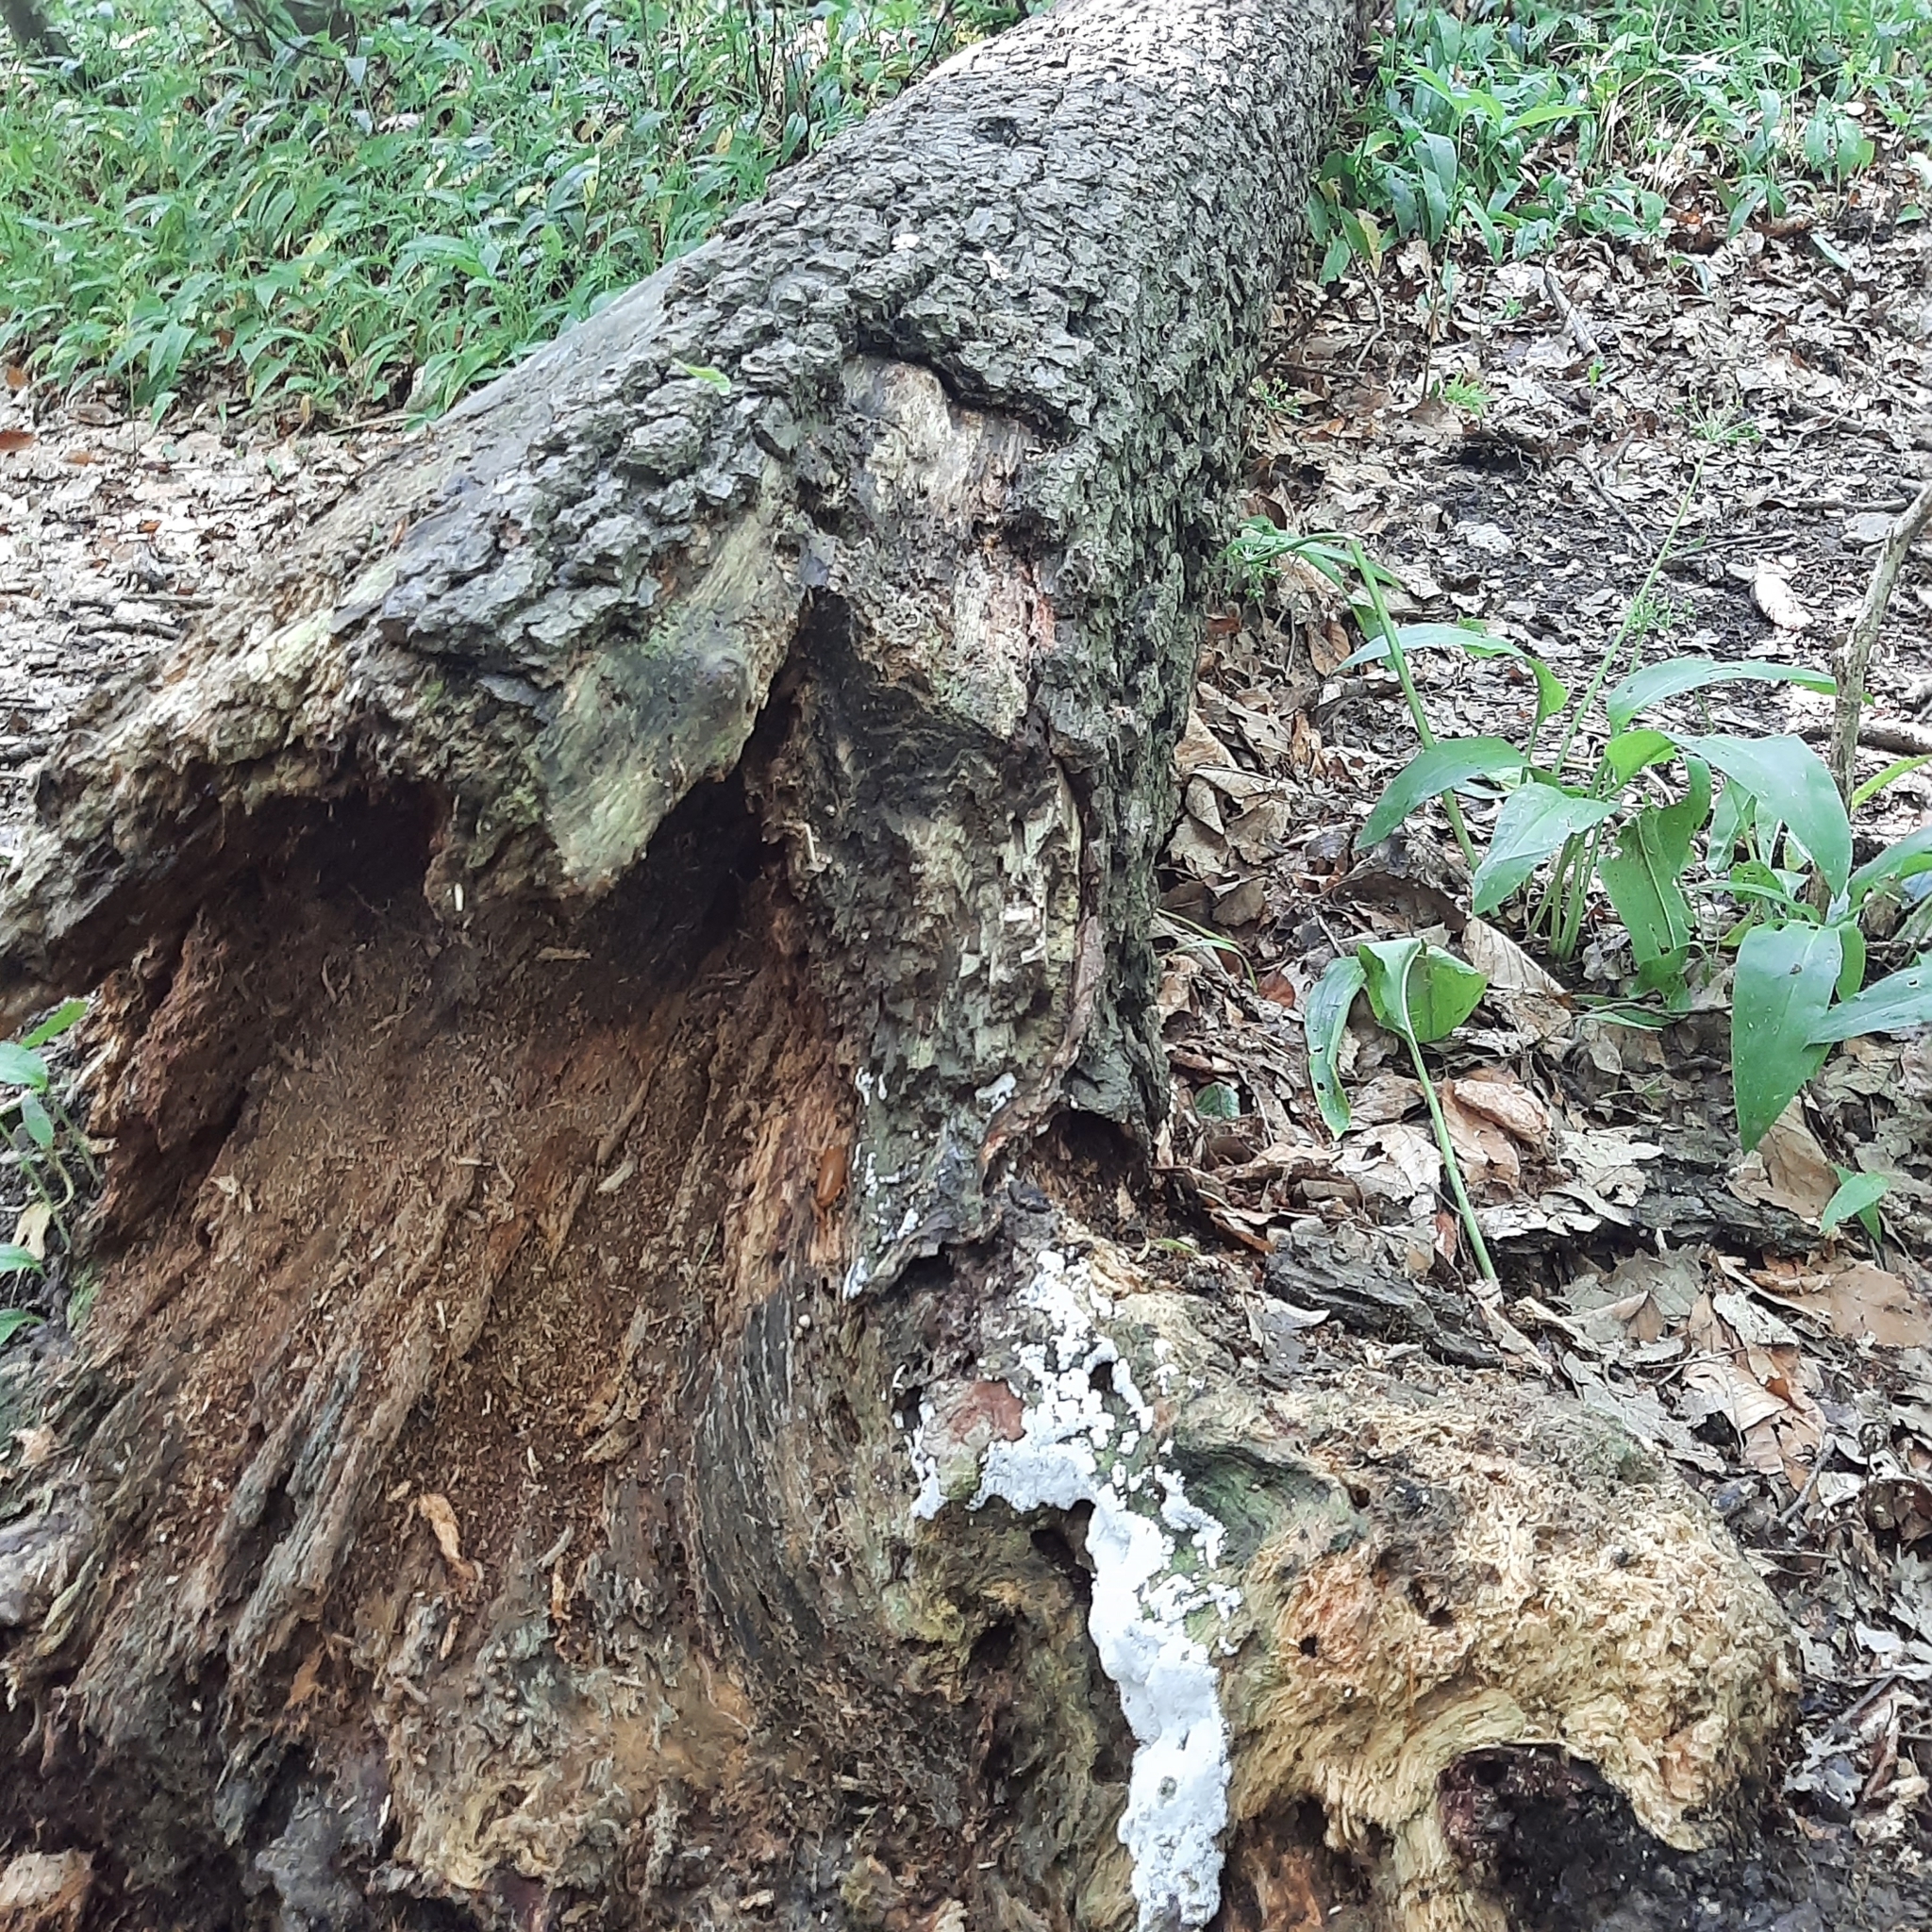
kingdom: Protozoa
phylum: Mycetozoa
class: Protosteliomycetes
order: Ceratiomyxales
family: Ceratiomyxaceae
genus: Ceratiomyxa
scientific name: Ceratiomyxa fruticulosa
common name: Honeycomb coral slime mold
